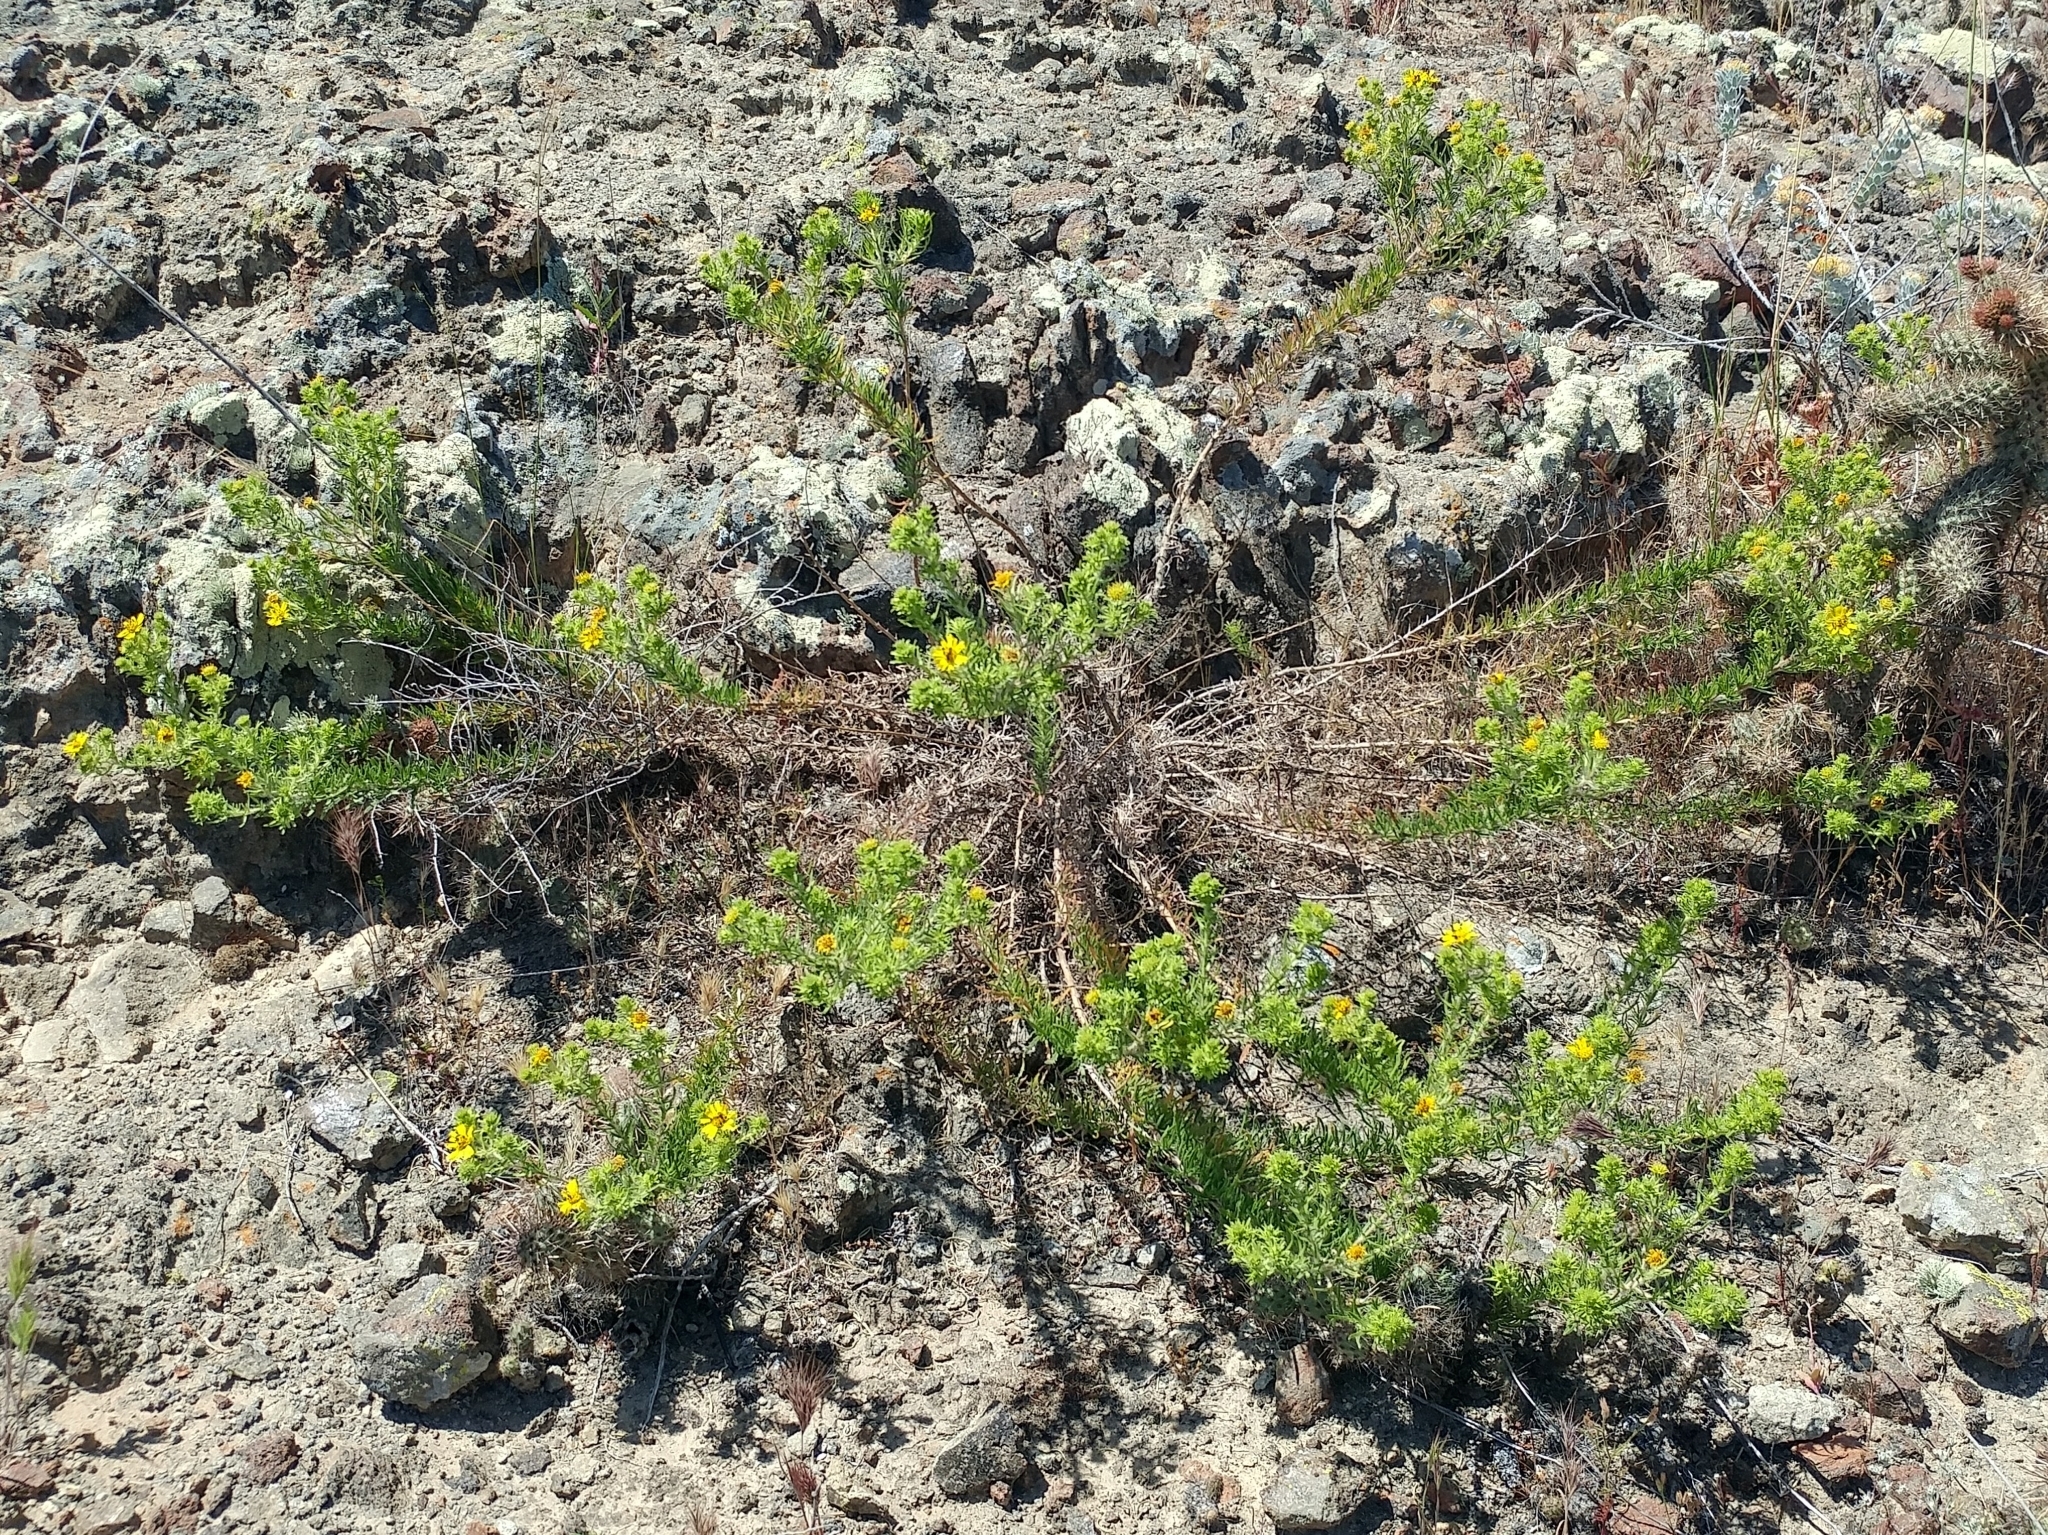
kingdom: Plantae
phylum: Tracheophyta
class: Magnoliopsida
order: Asterales
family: Asteraceae
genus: Deinandra
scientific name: Deinandra clementina
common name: Island tarplant
